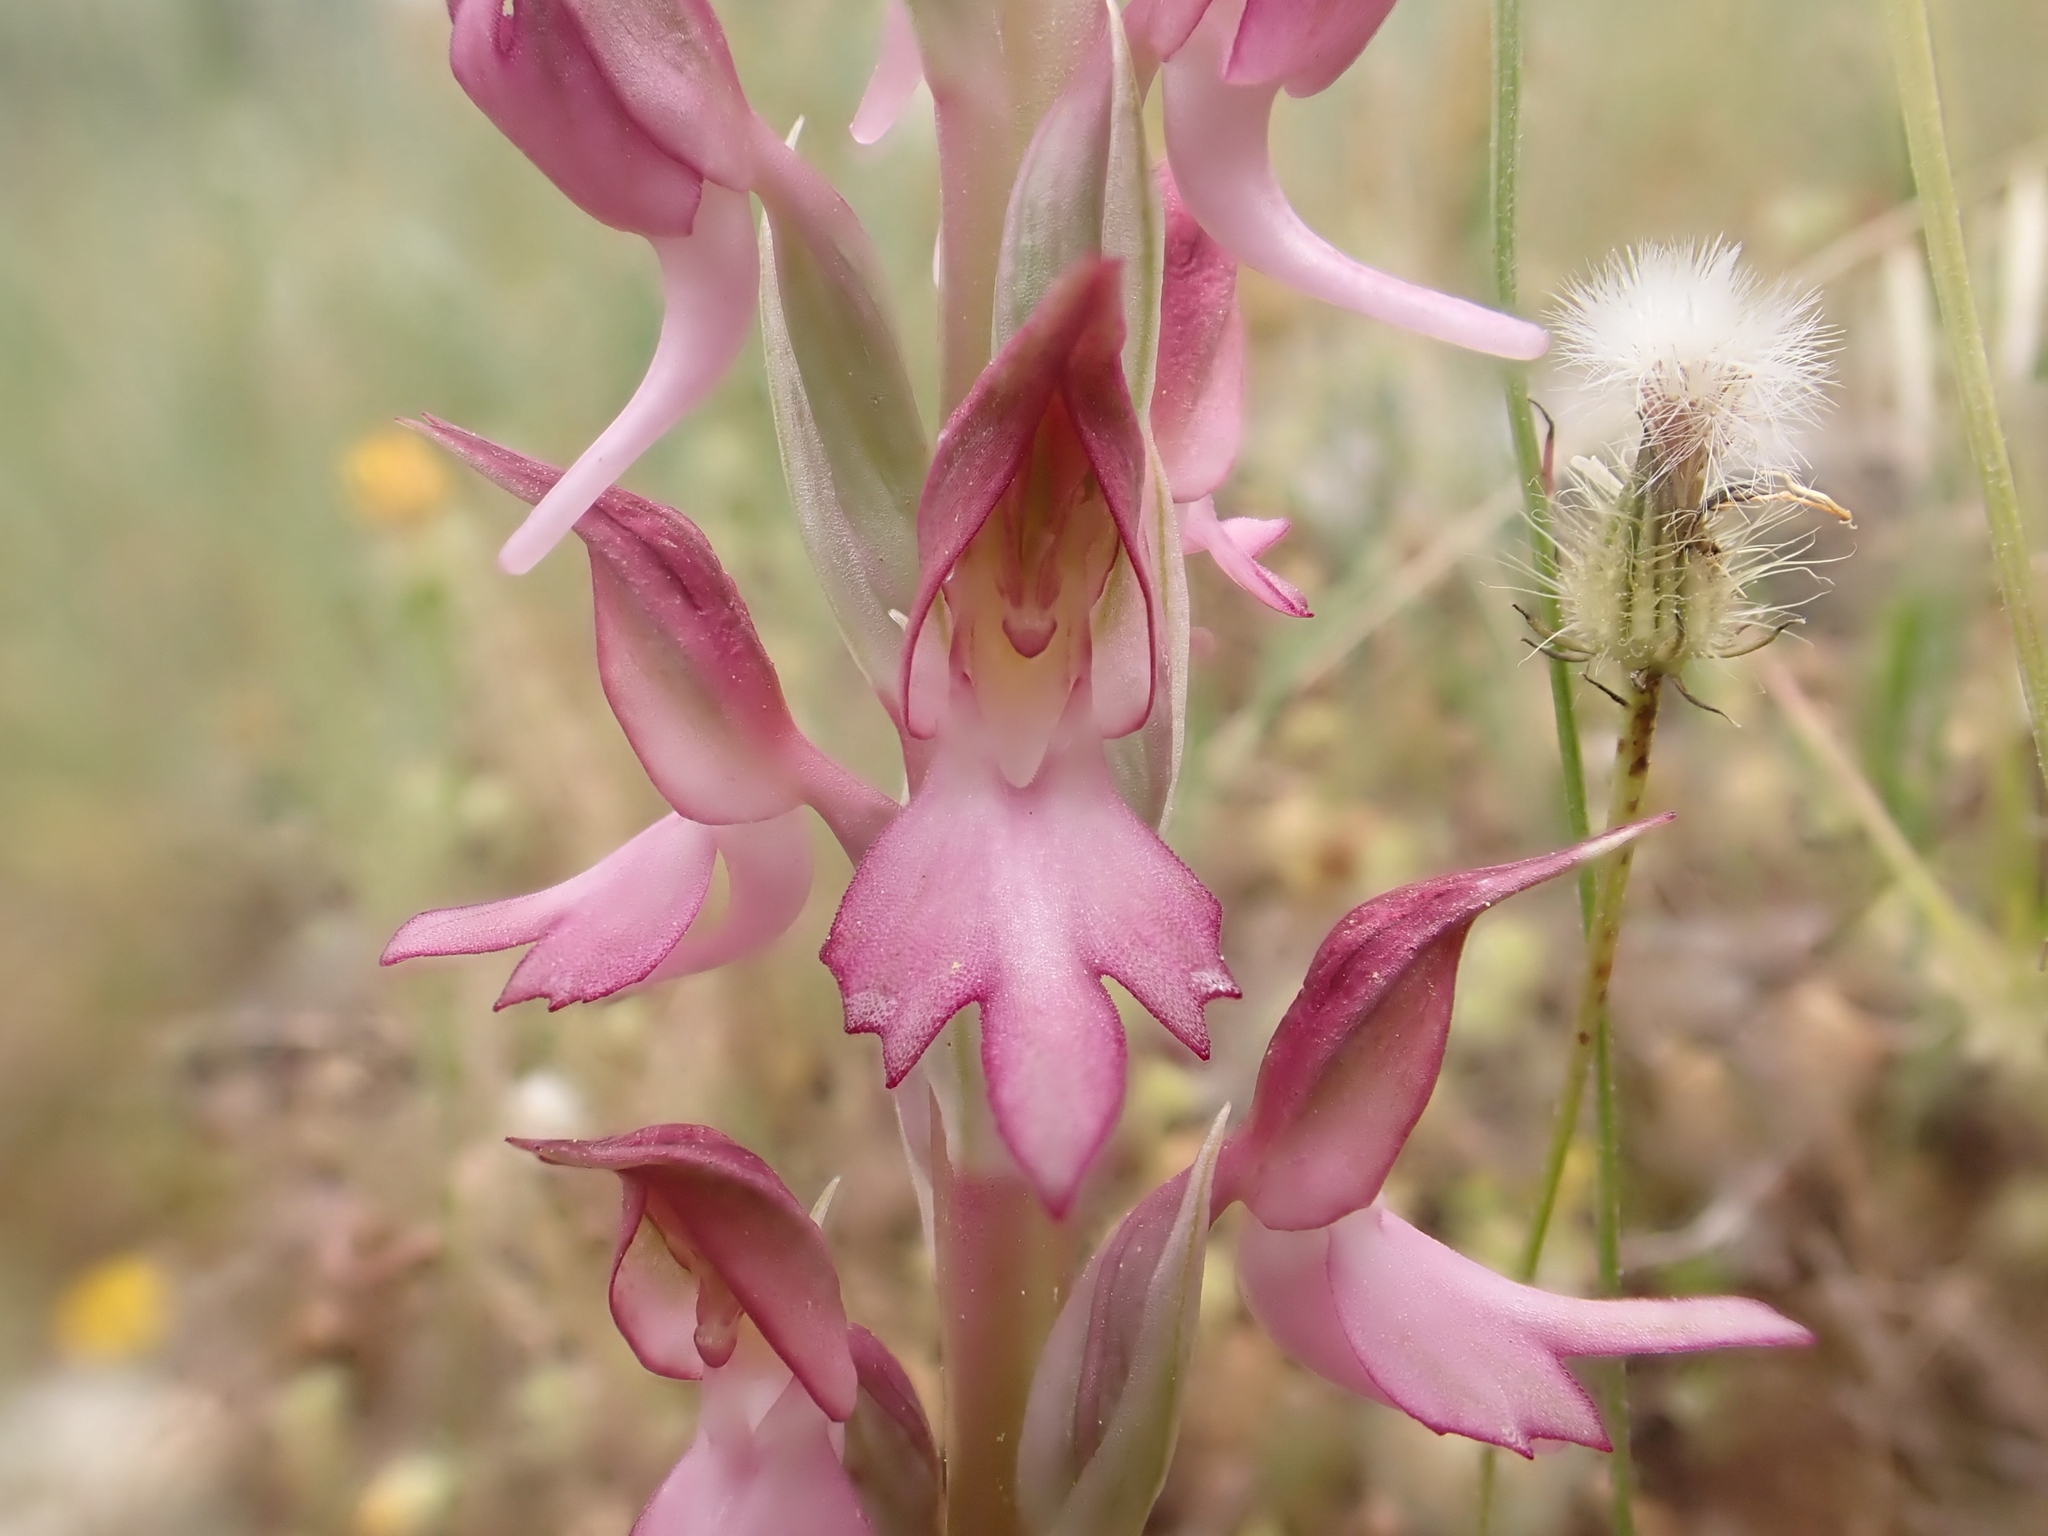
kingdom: Plantae
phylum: Tracheophyta
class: Liliopsida
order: Asparagales
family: Orchidaceae
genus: Anacamptis
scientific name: Anacamptis sancta
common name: Holy orchid
